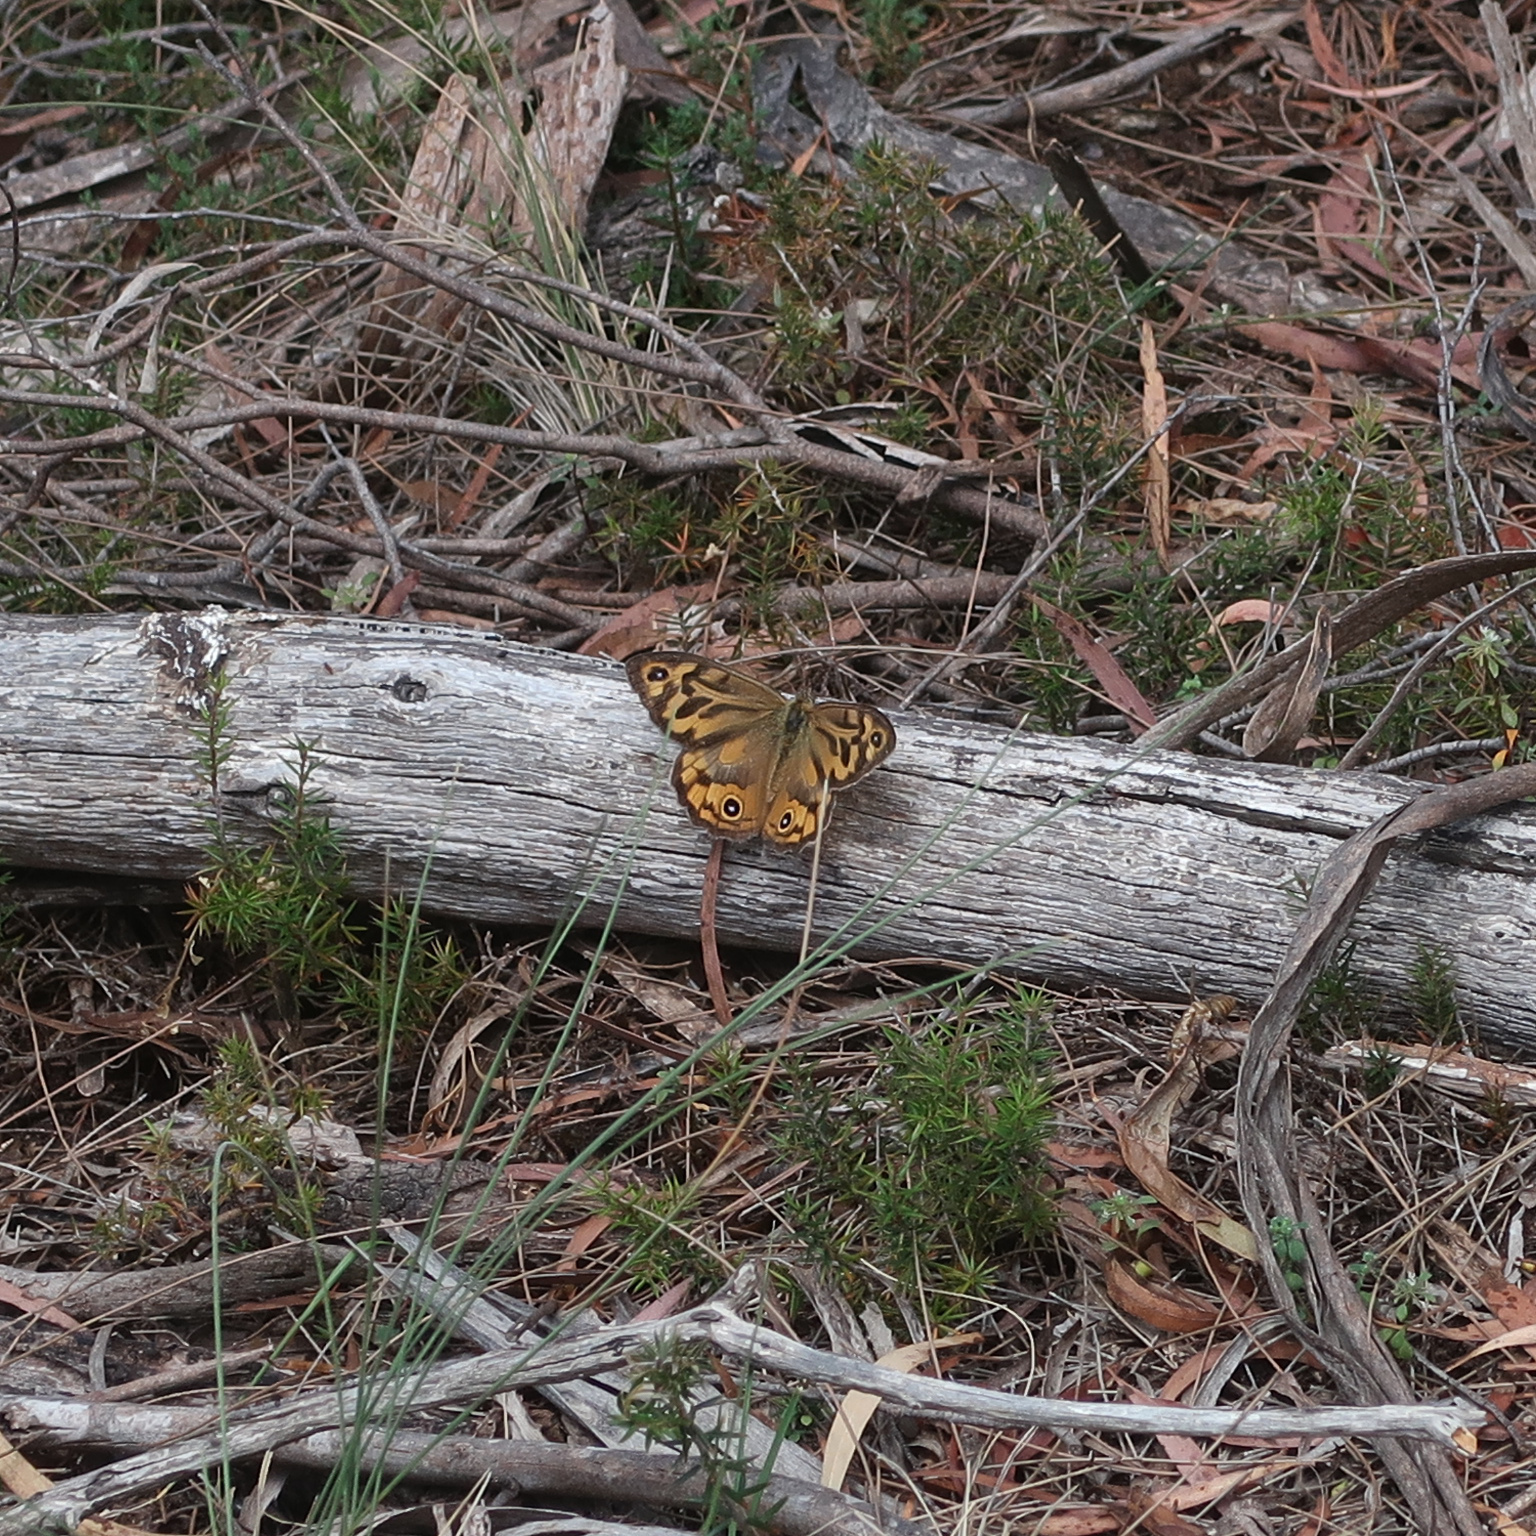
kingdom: Animalia
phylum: Arthropoda
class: Insecta
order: Lepidoptera
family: Nymphalidae
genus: Heteronympha
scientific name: Heteronympha merope
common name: Common brown
